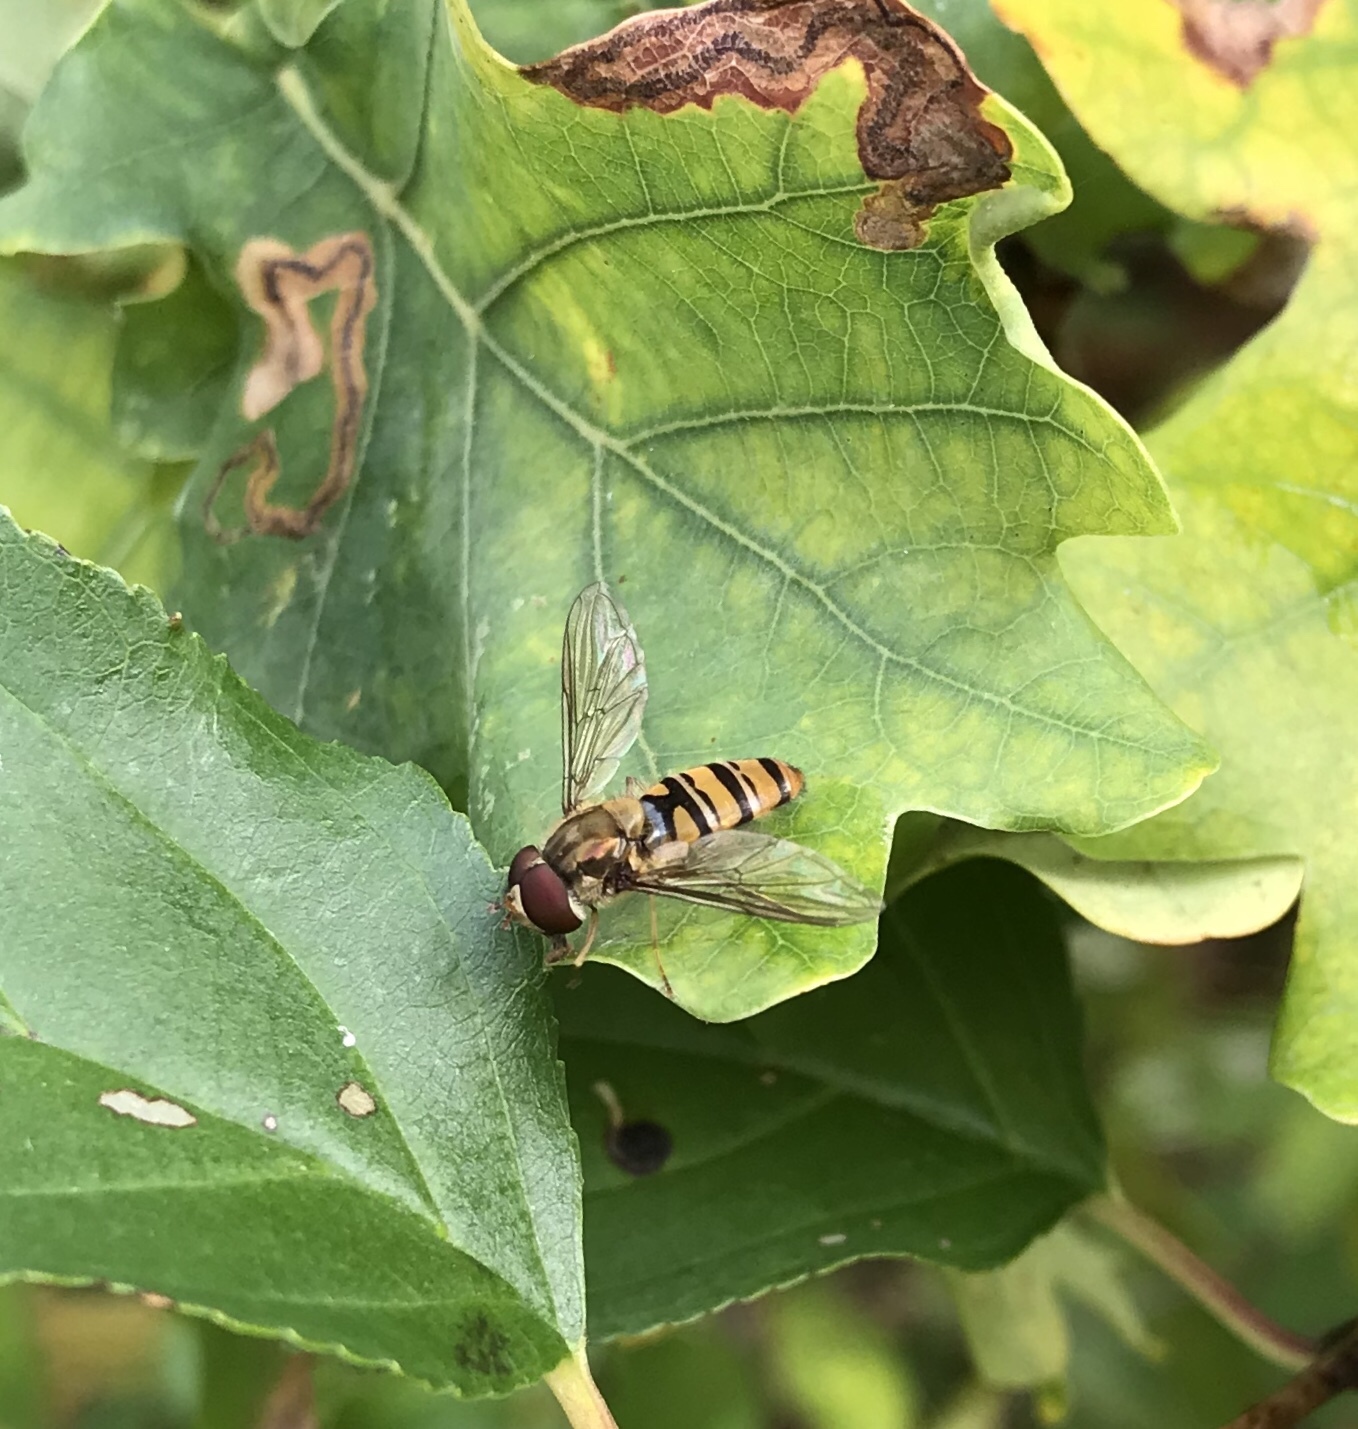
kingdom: Animalia
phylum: Arthropoda
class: Insecta
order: Diptera
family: Syrphidae
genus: Episyrphus
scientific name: Episyrphus balteatus
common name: Marmalade hoverfly
